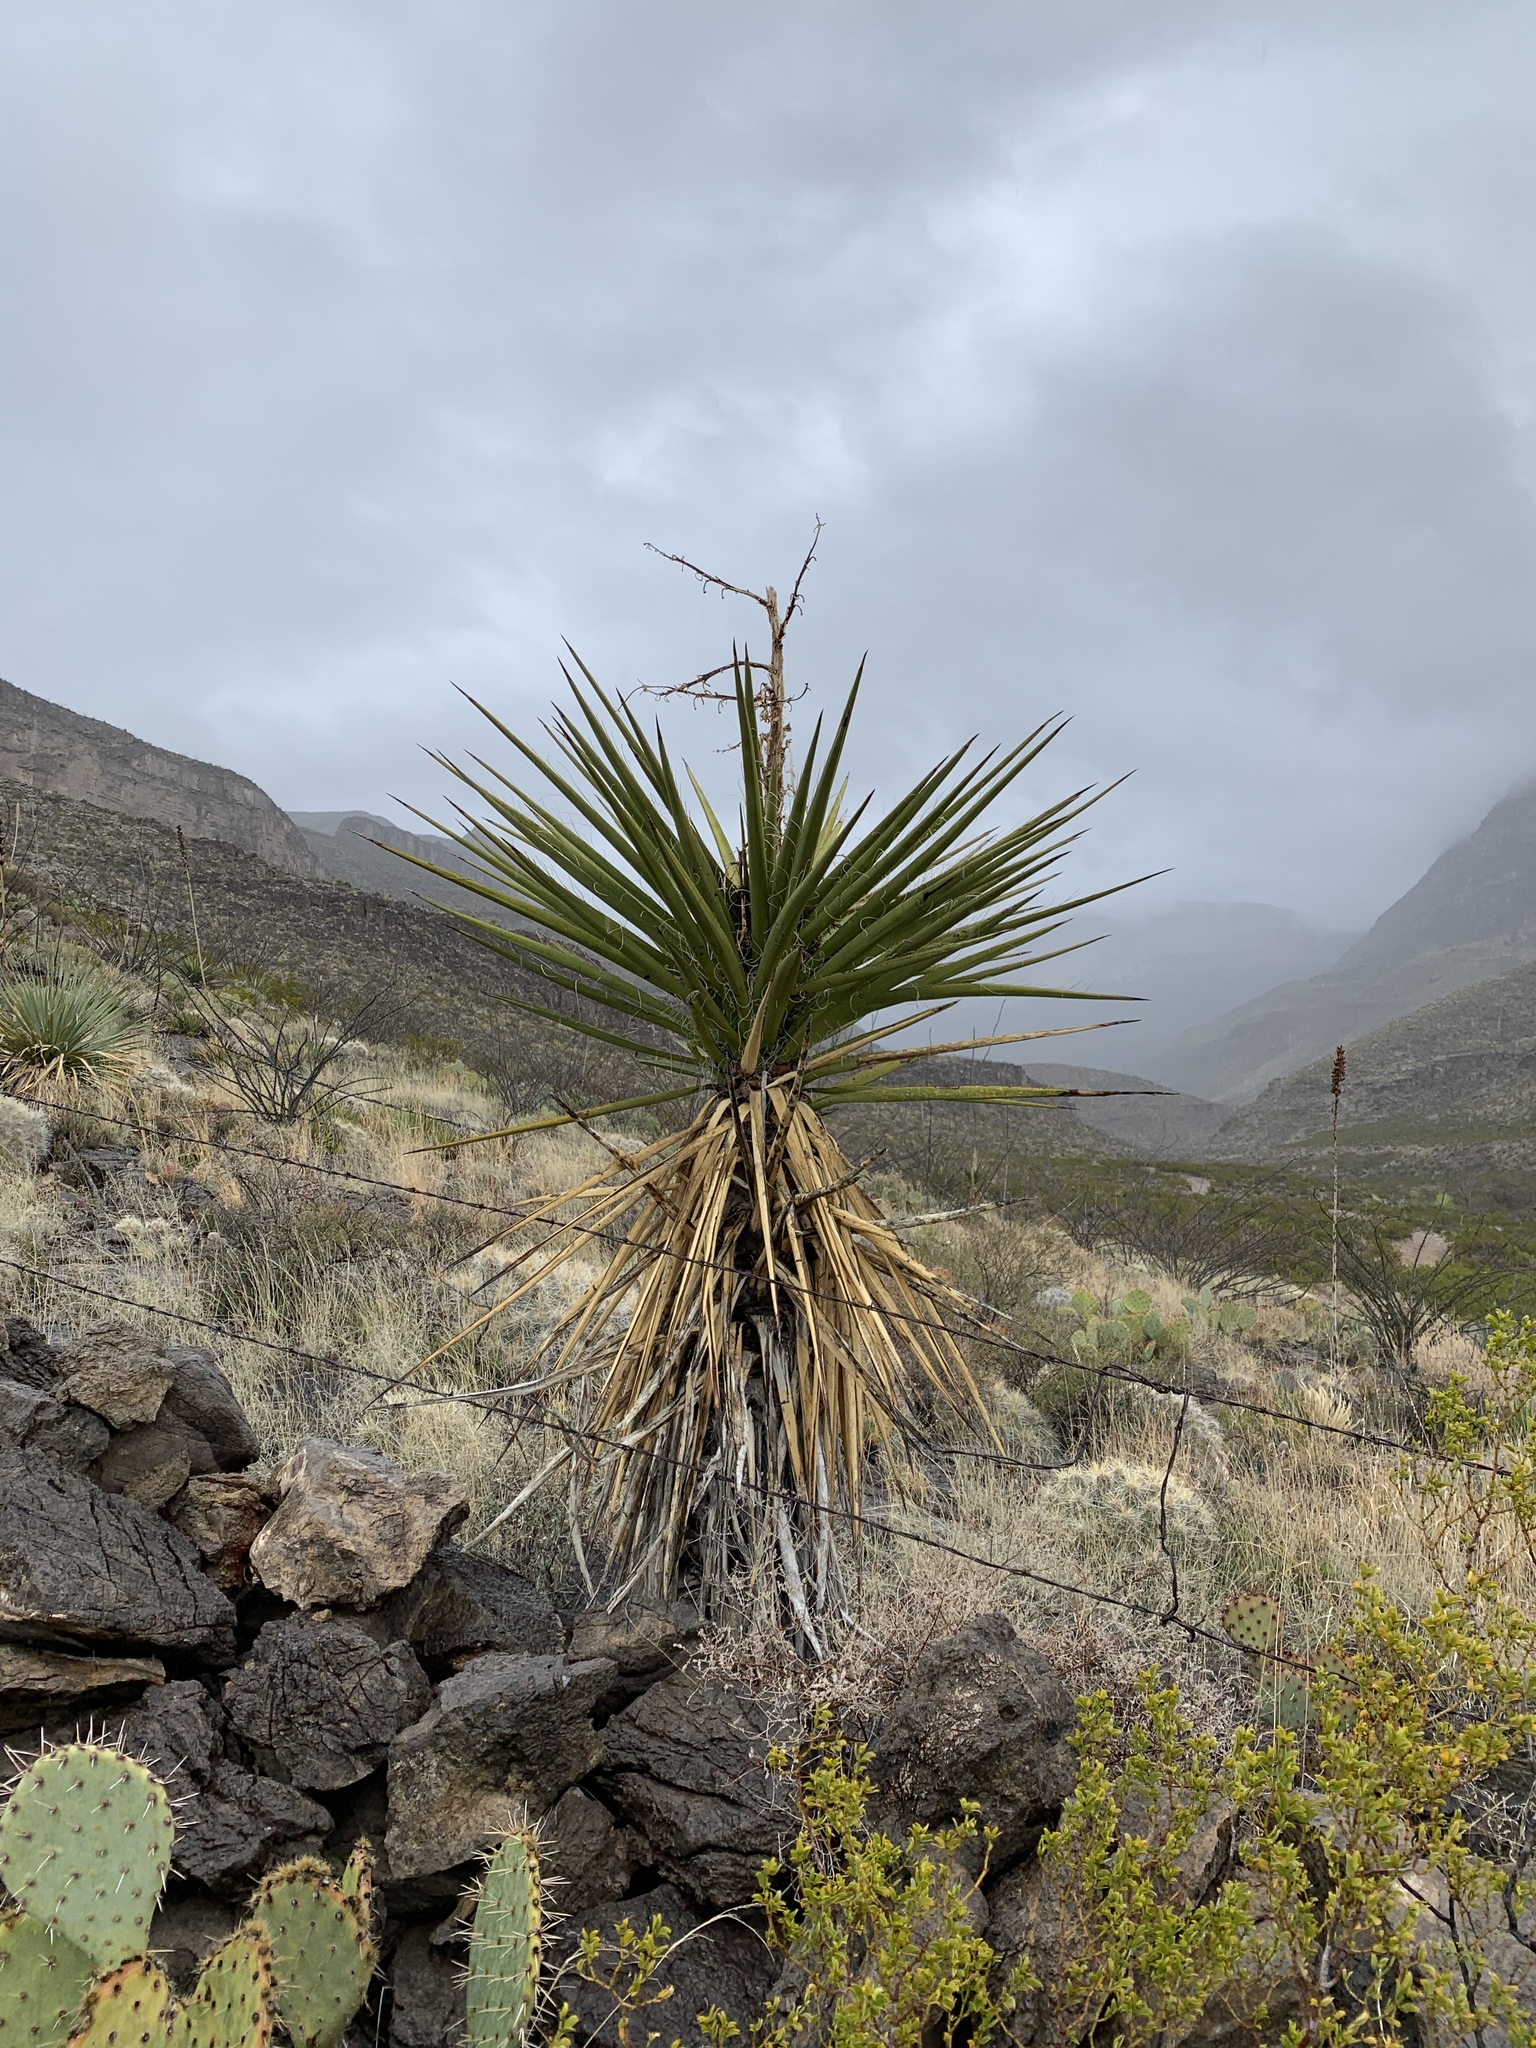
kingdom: Plantae
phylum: Tracheophyta
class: Liliopsida
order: Asparagales
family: Asparagaceae
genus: Yucca
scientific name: Yucca treculiana
